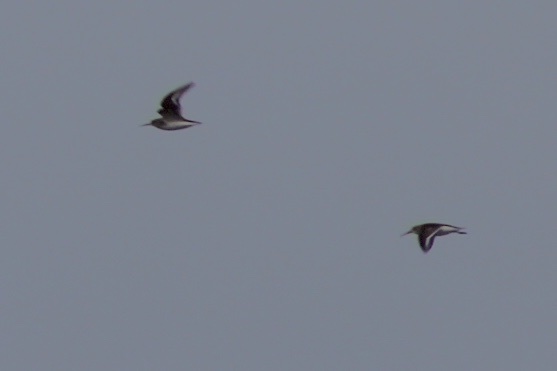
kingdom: Animalia
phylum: Chordata
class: Aves
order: Charadriiformes
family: Scolopacidae
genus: Calidris
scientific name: Calidris alpina
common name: Dunlin
